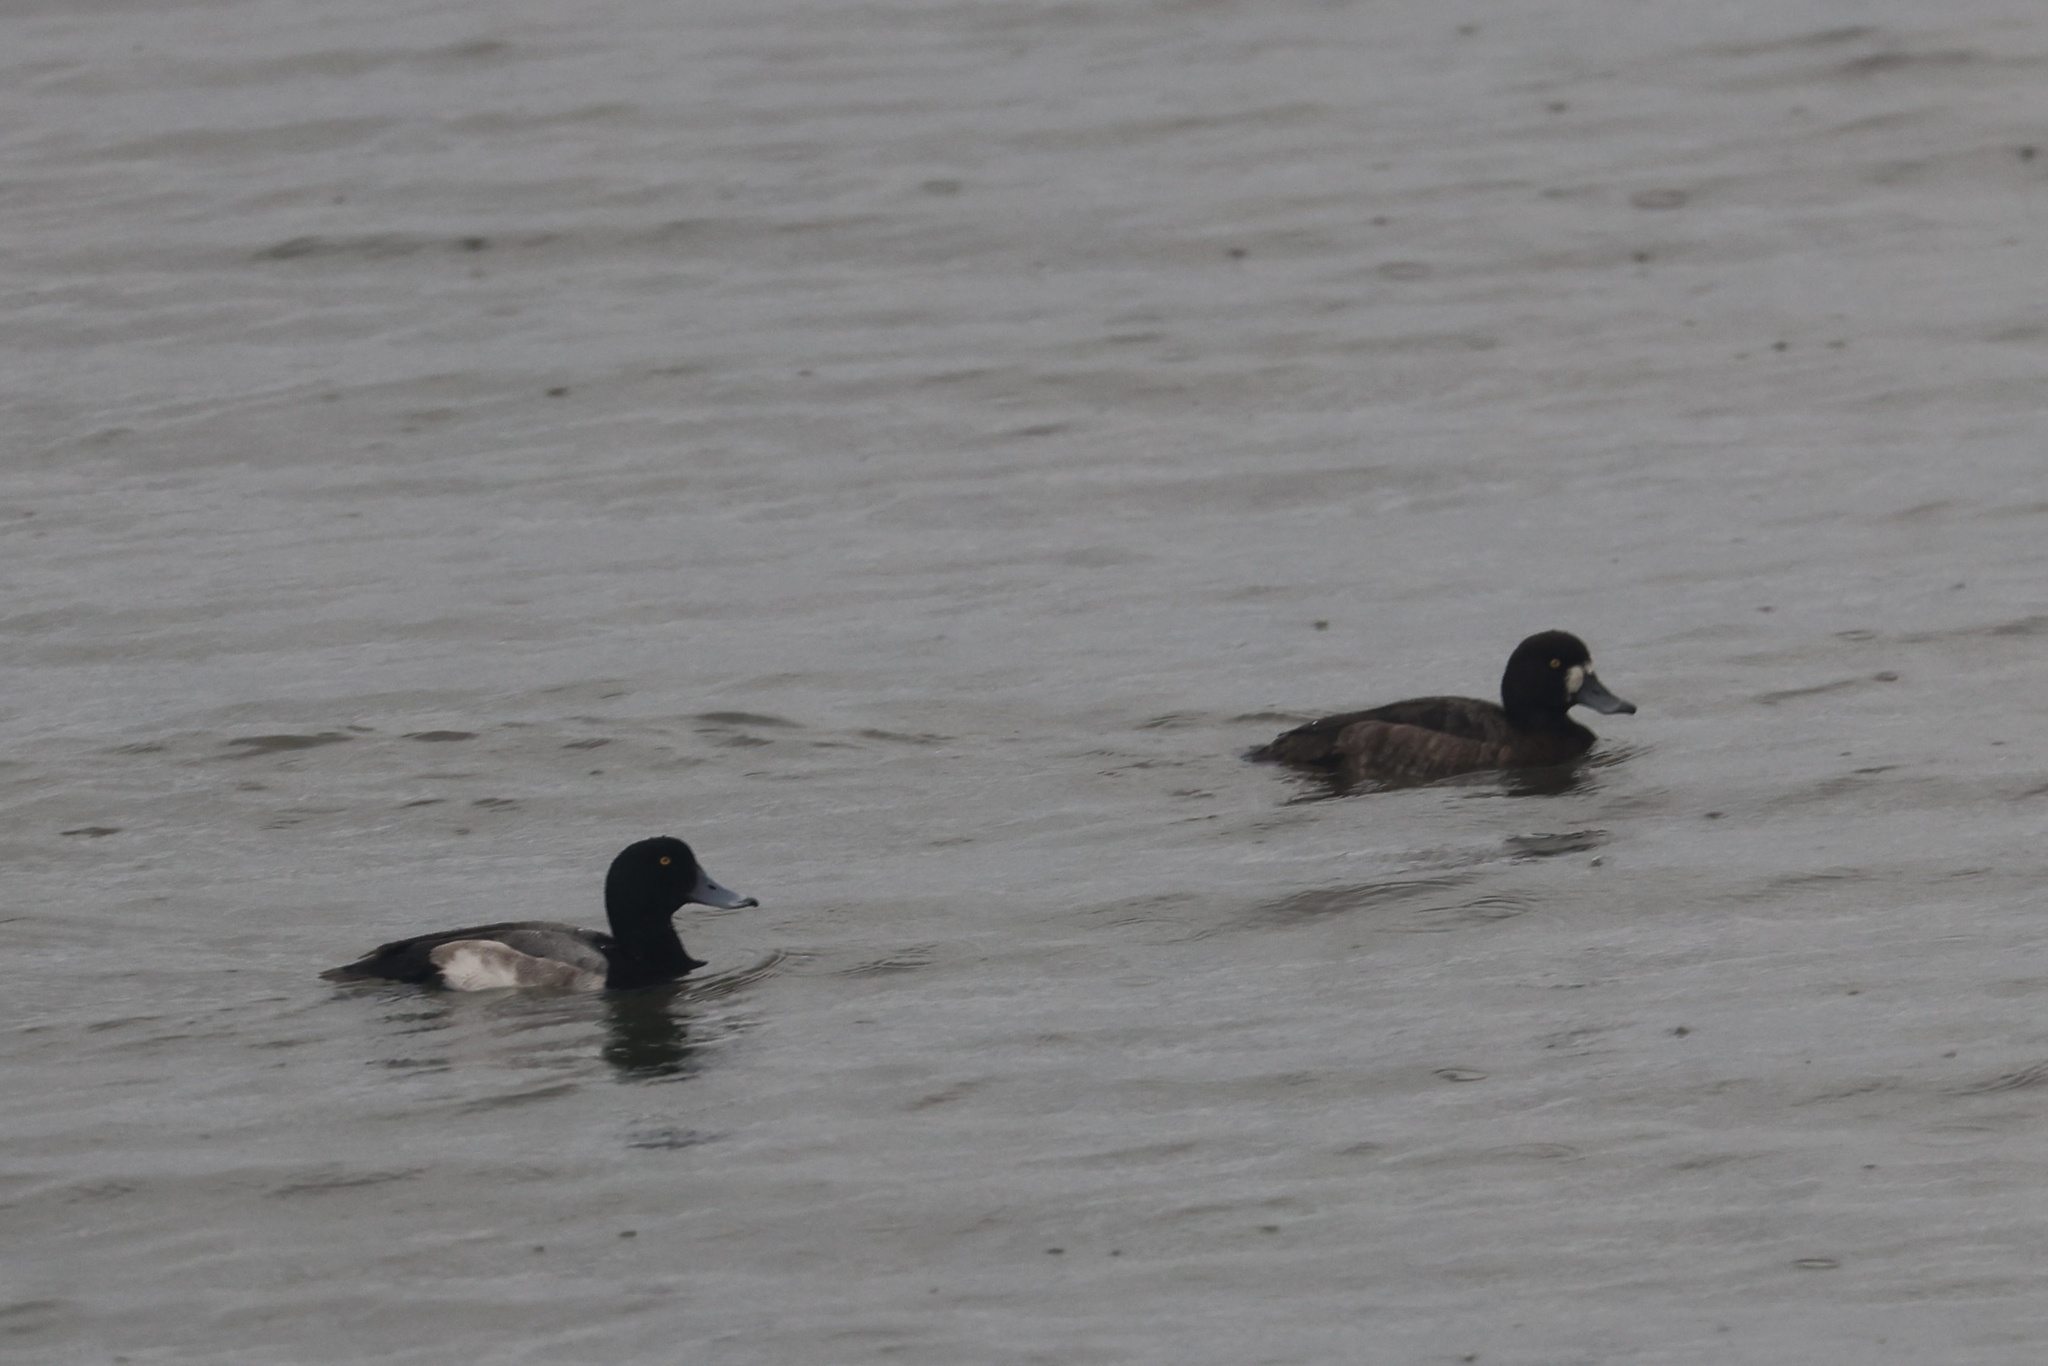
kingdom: Animalia
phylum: Chordata
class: Aves
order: Anseriformes
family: Anatidae
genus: Aythya
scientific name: Aythya marila
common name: Greater scaup
